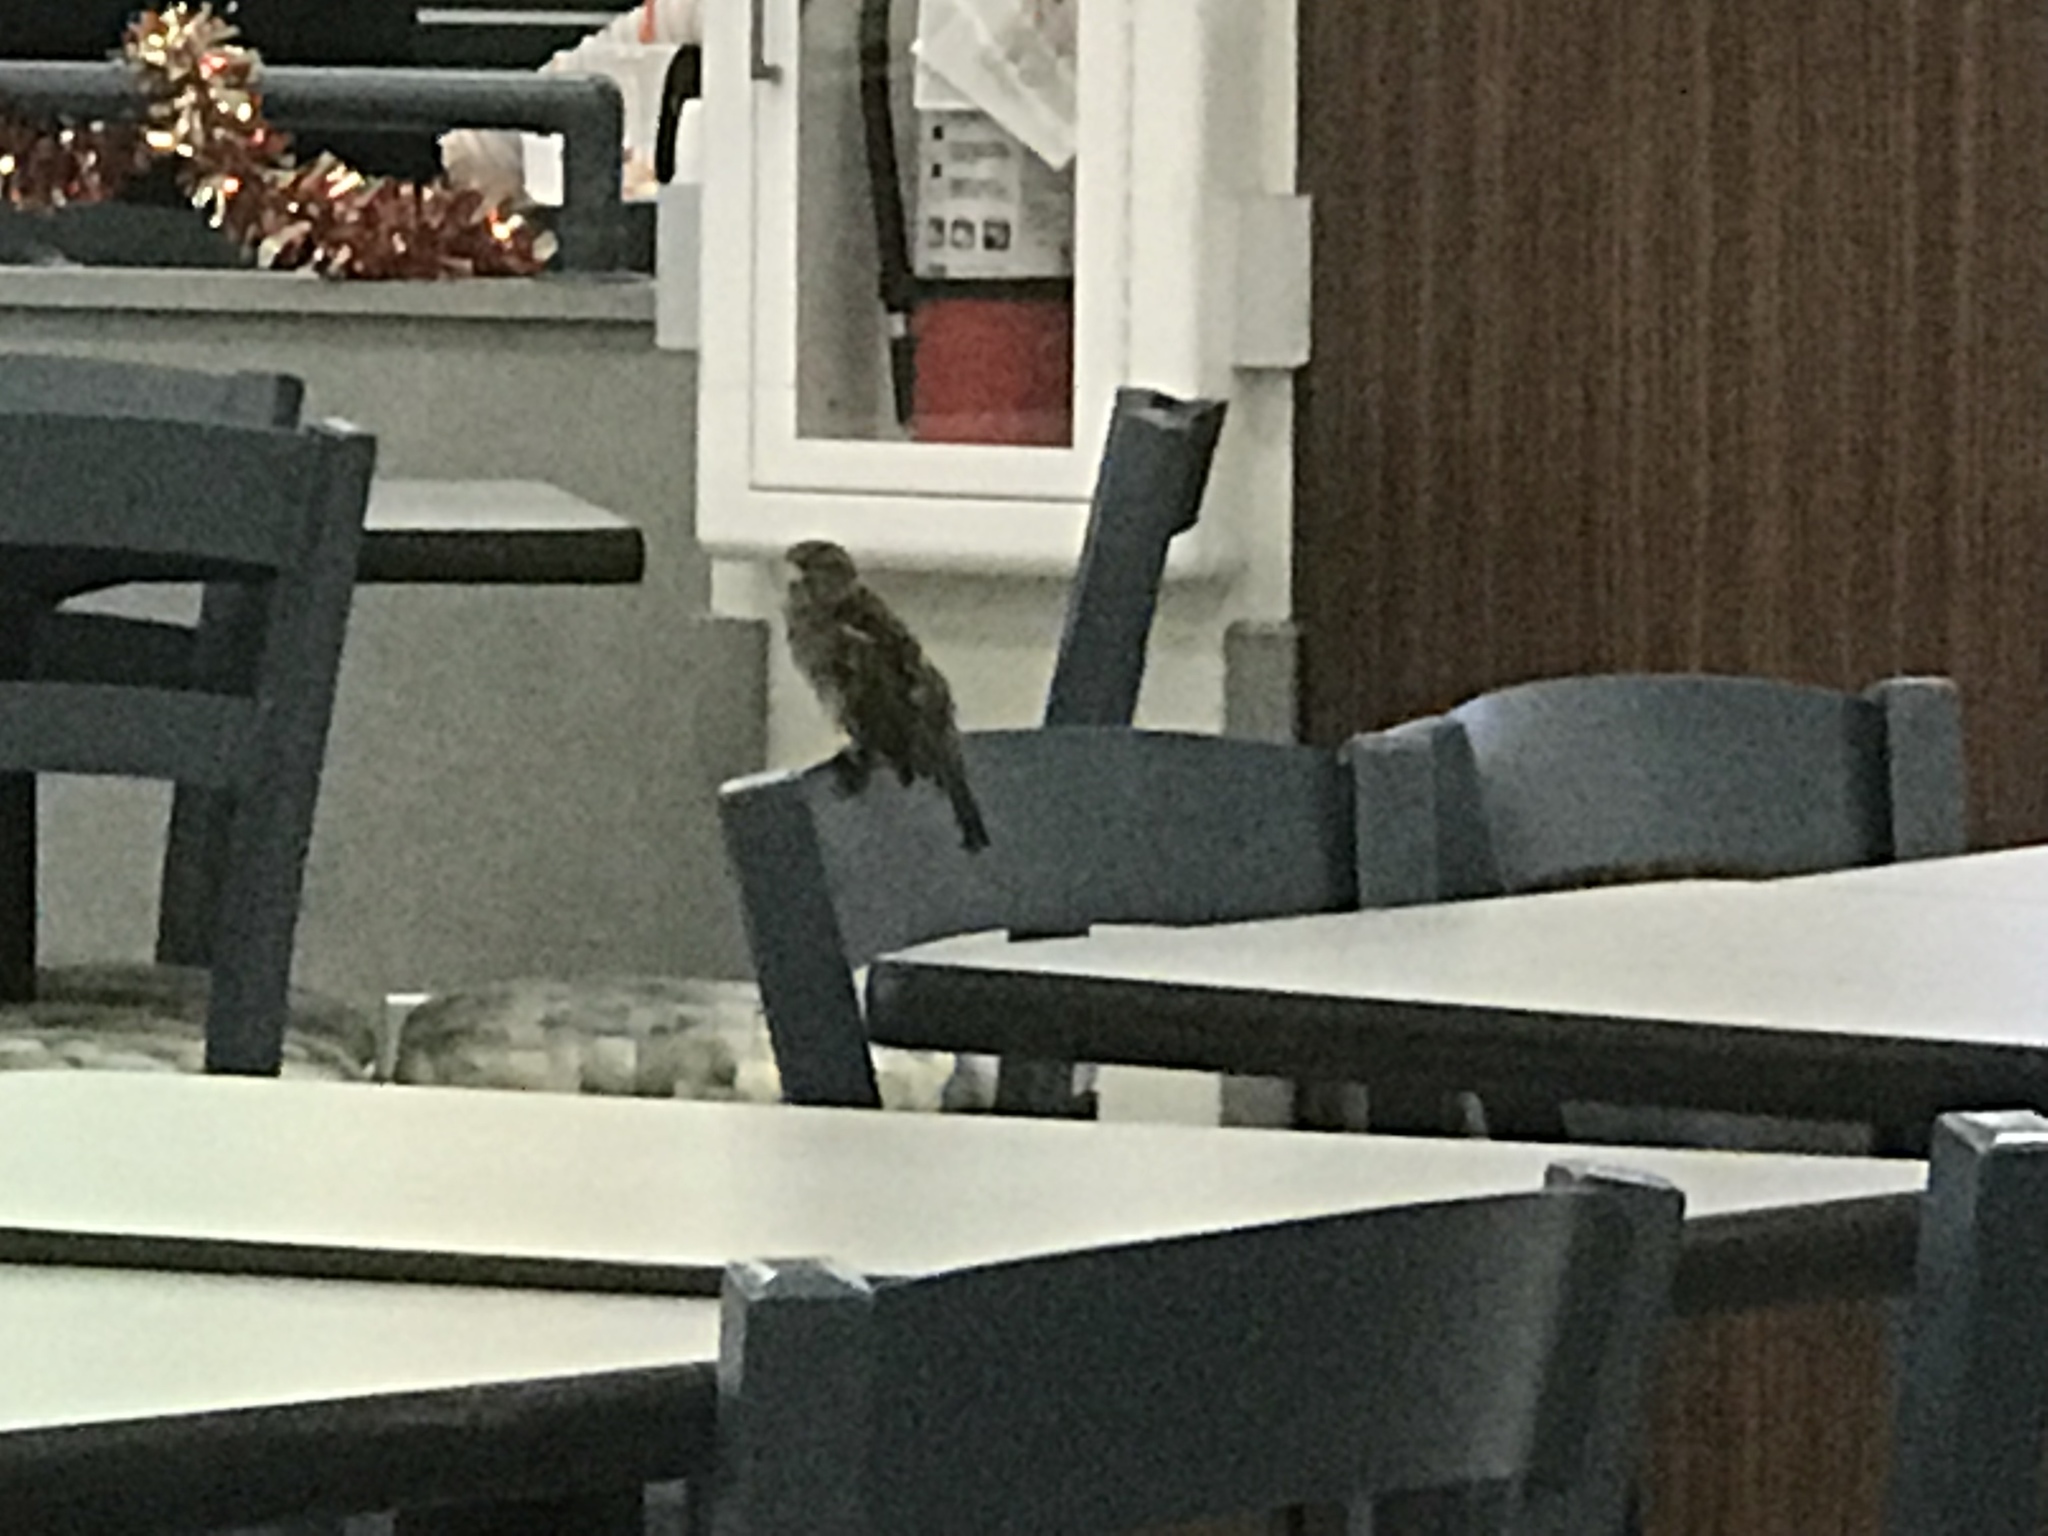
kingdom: Animalia
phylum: Chordata
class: Aves
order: Passeriformes
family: Passeridae
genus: Passer
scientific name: Passer domesticus
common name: House sparrow
